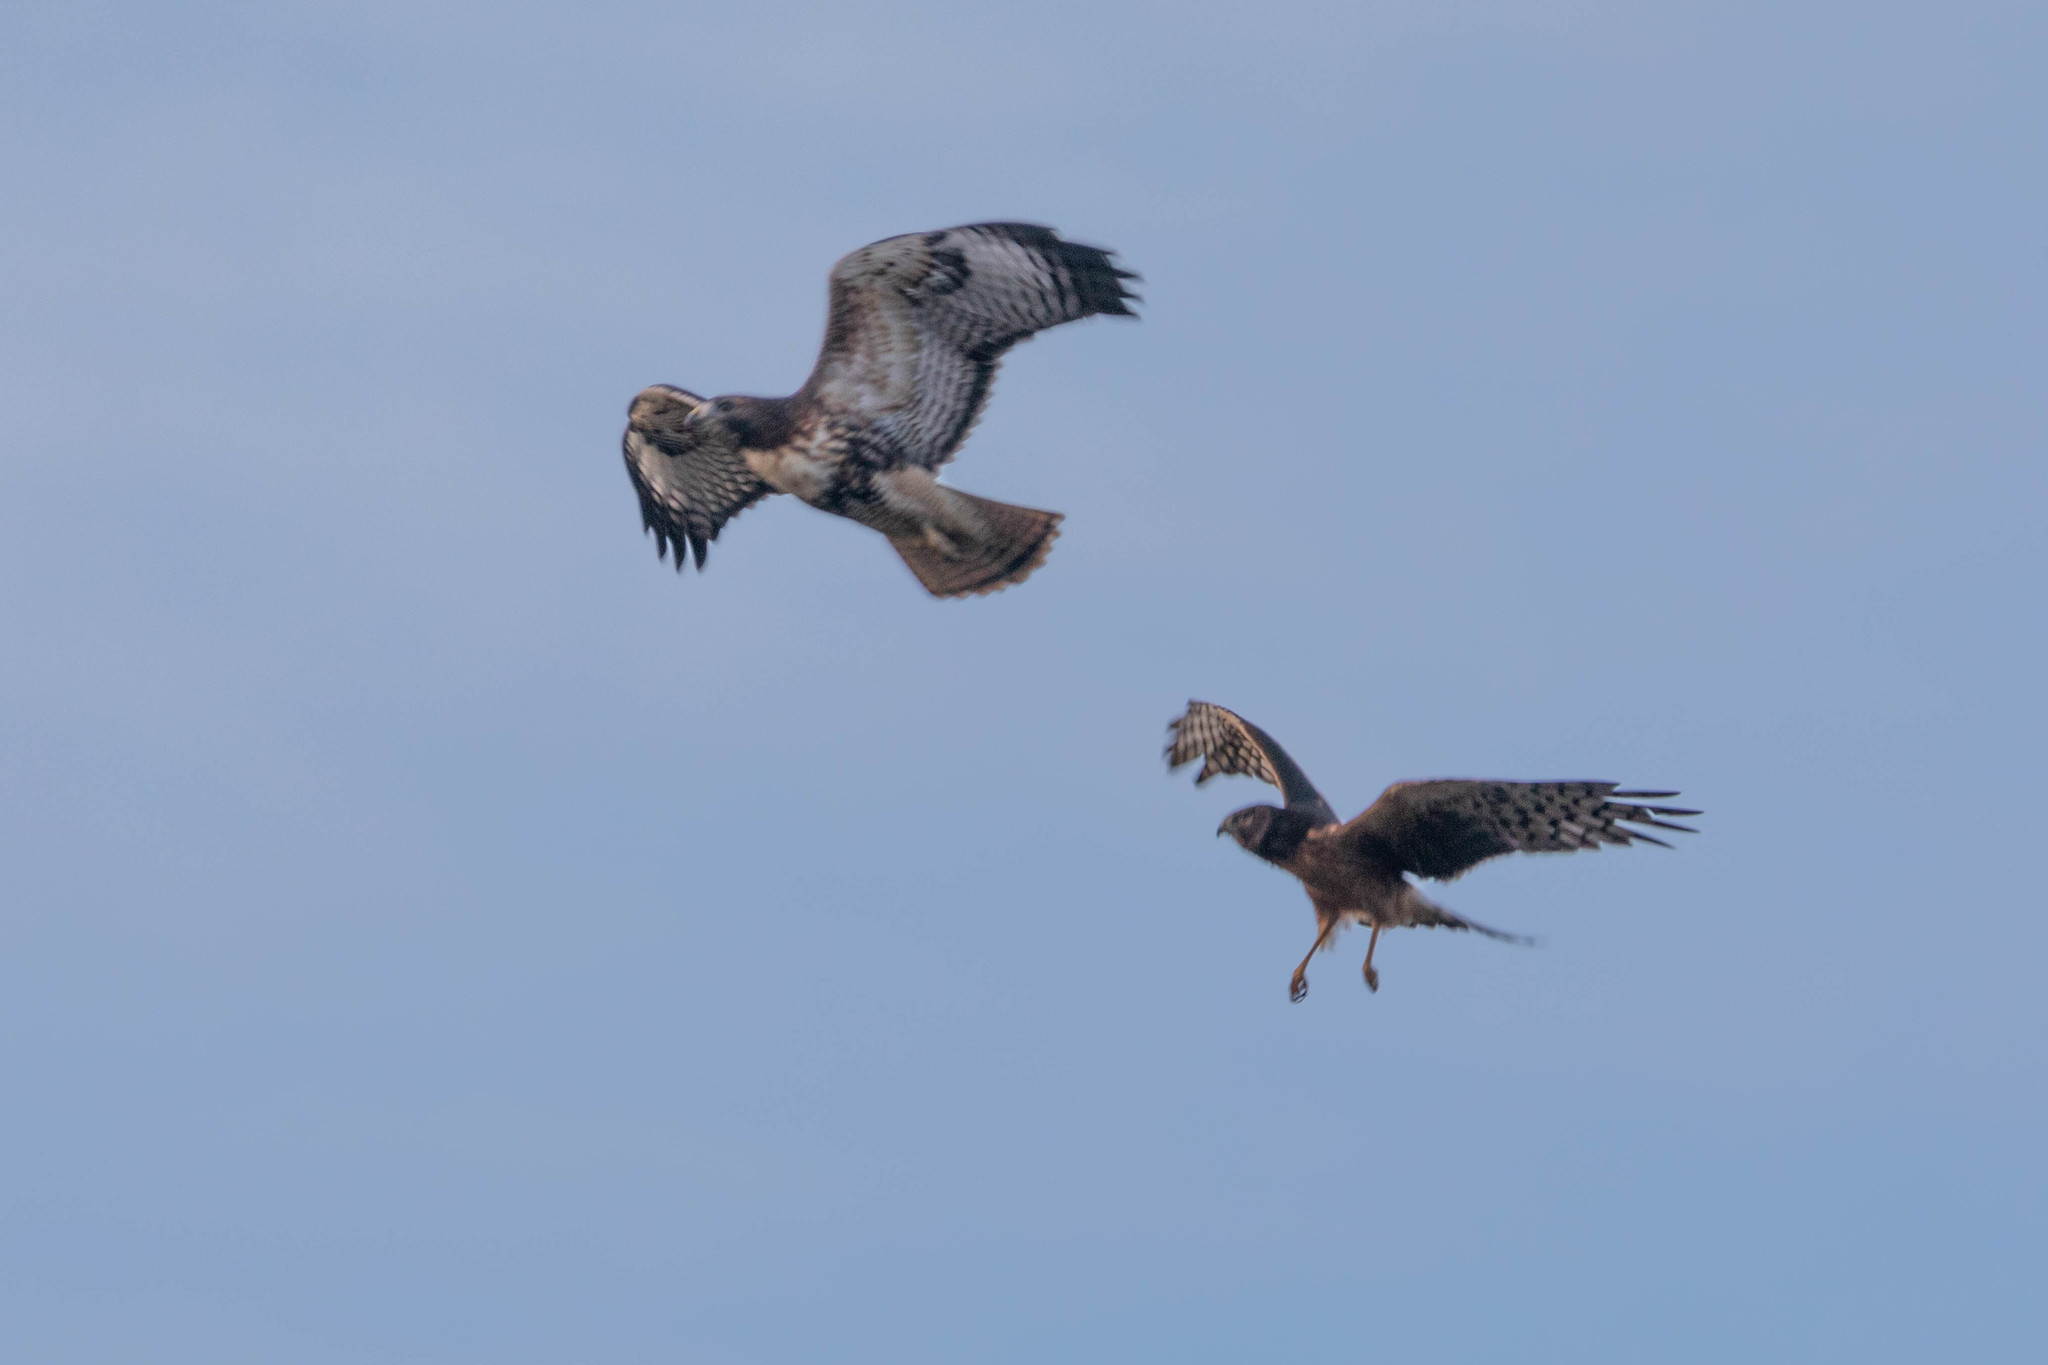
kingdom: Animalia
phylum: Chordata
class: Aves
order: Accipitriformes
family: Accipitridae
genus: Buteo
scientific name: Buteo jamaicensis
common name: Red-tailed hawk
